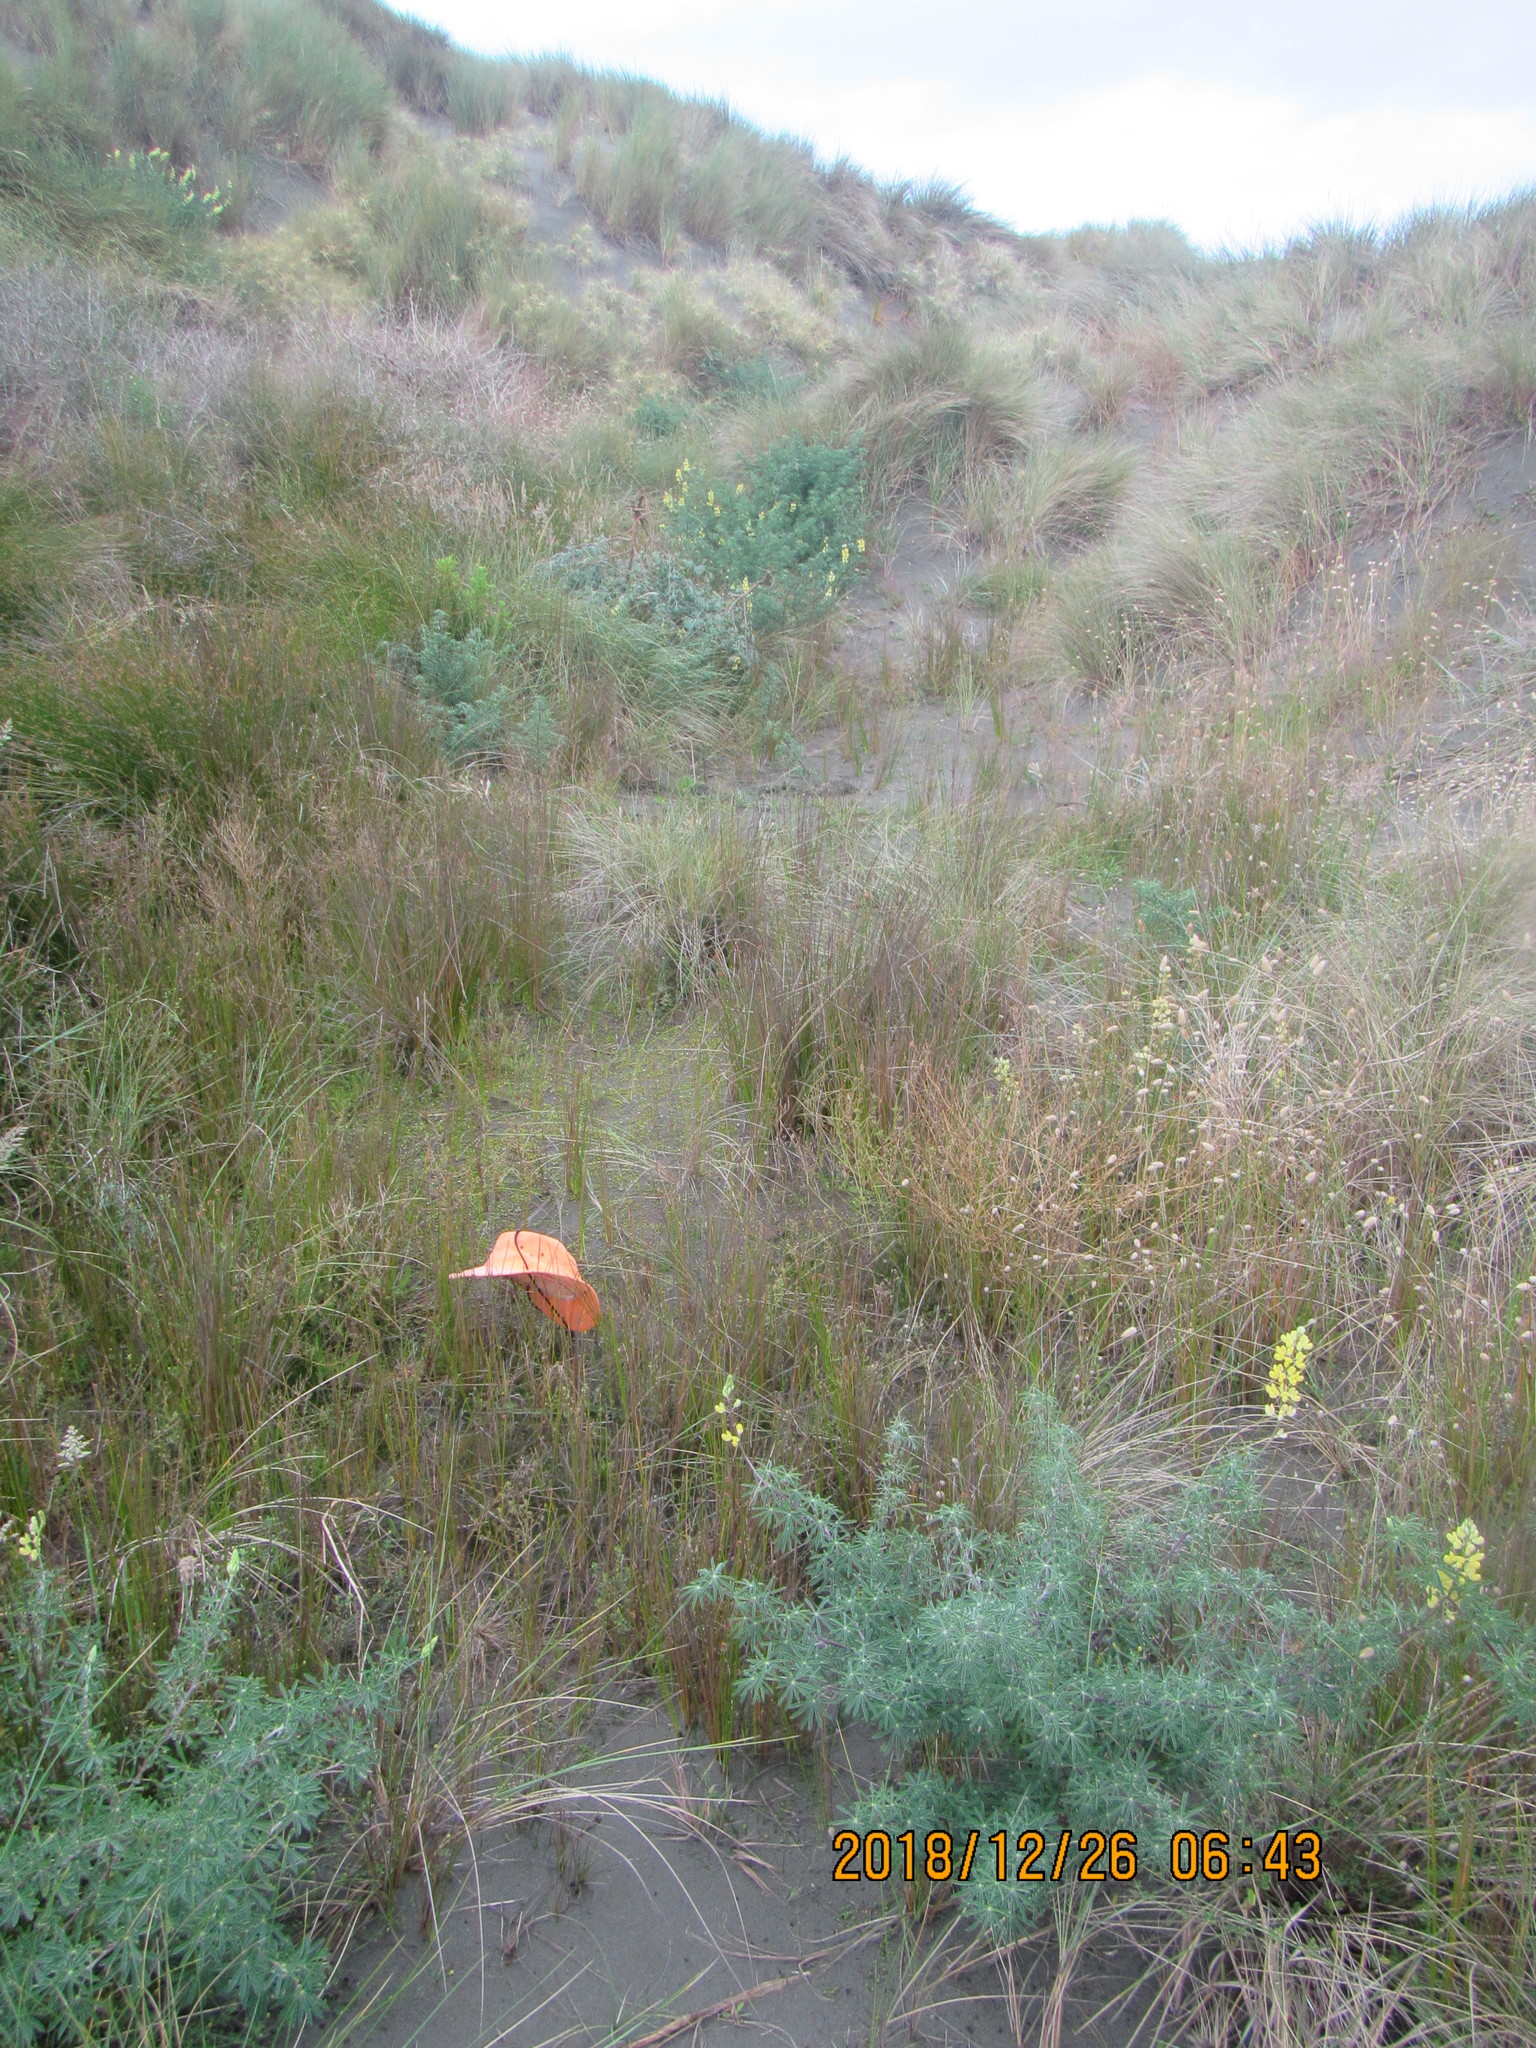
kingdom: Plantae
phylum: Tracheophyta
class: Magnoliopsida
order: Asterales
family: Goodeniaceae
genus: Goodenia
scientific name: Goodenia heenanii
